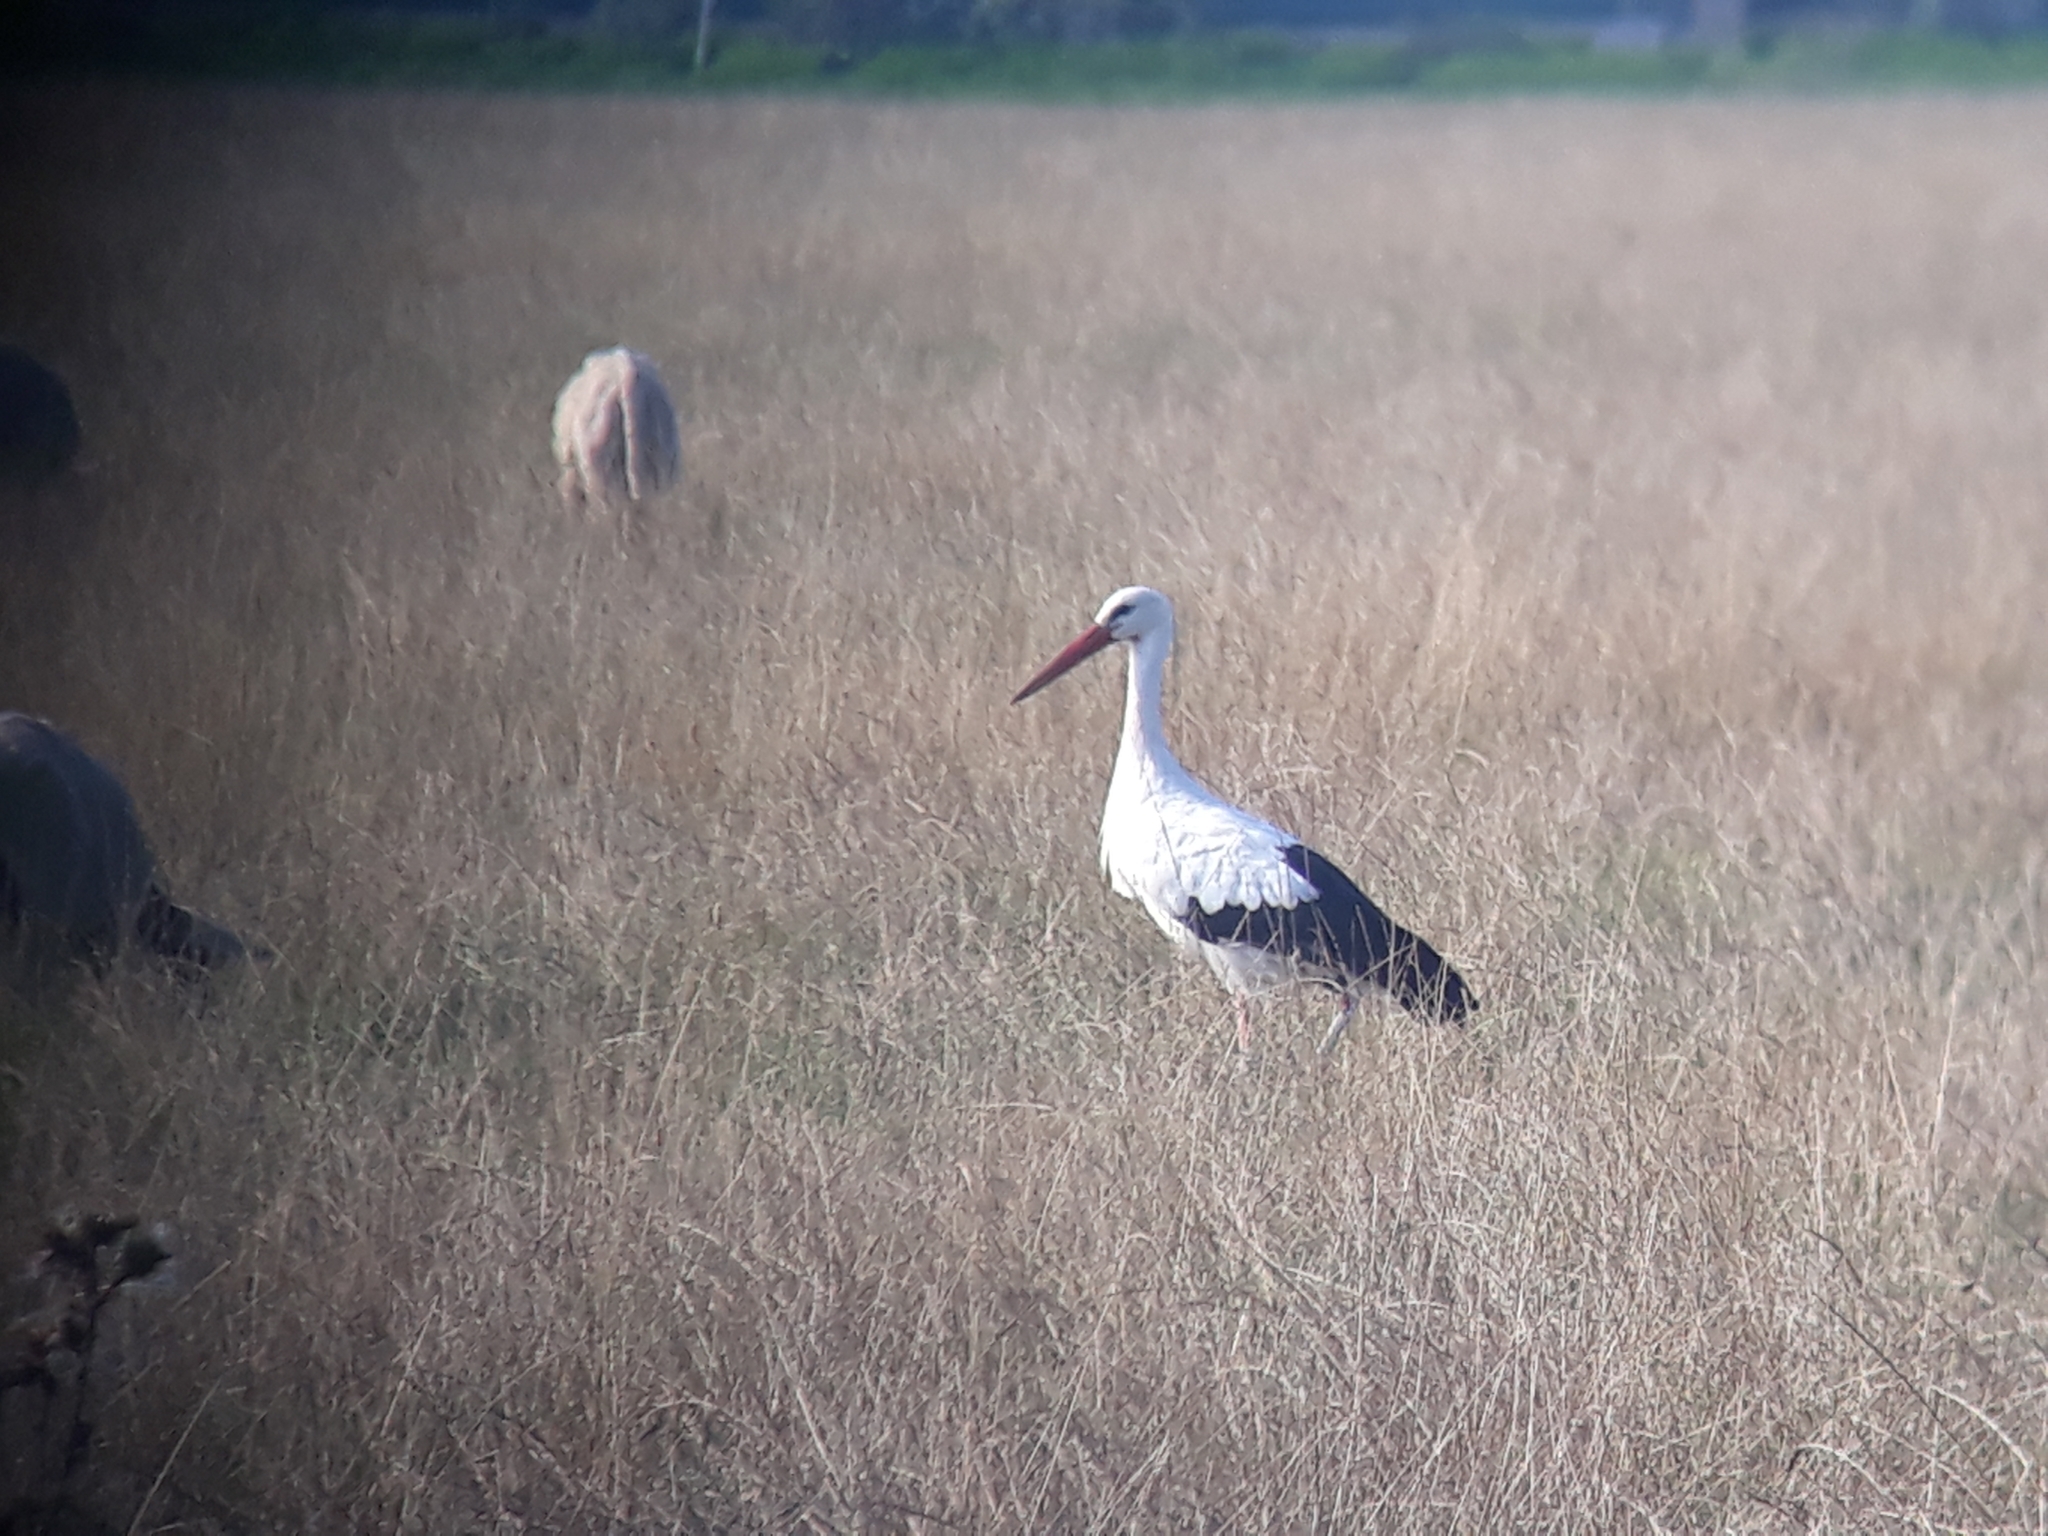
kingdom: Animalia
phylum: Chordata
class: Aves
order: Ciconiiformes
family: Ciconiidae
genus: Ciconia
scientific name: Ciconia ciconia
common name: White stork
